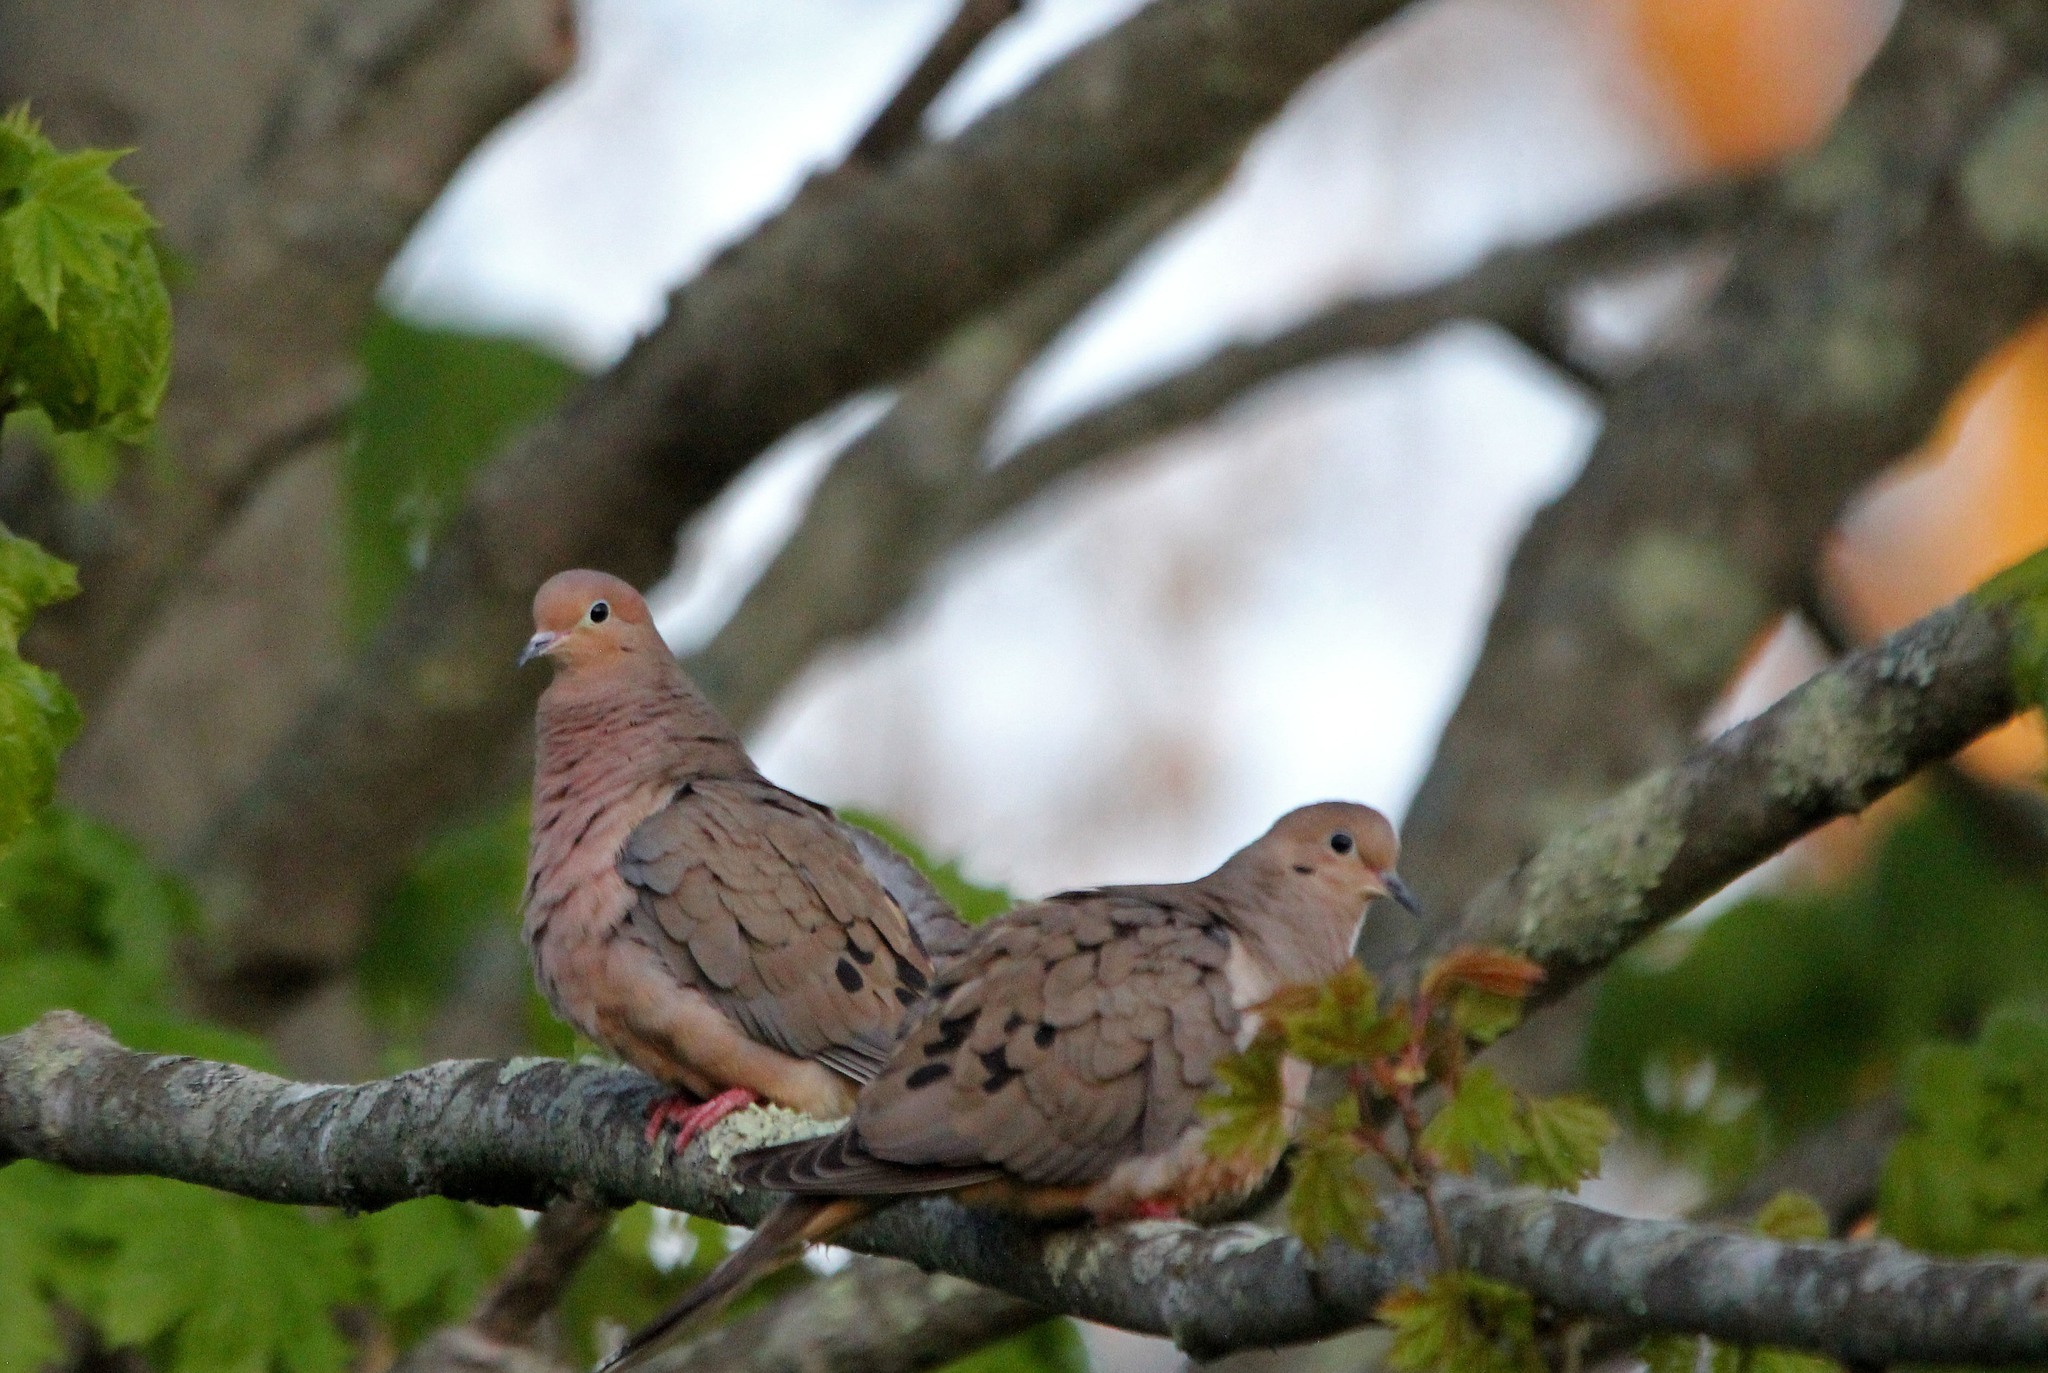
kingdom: Animalia
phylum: Chordata
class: Aves
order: Columbiformes
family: Columbidae
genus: Zenaida
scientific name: Zenaida macroura
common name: Mourning dove
